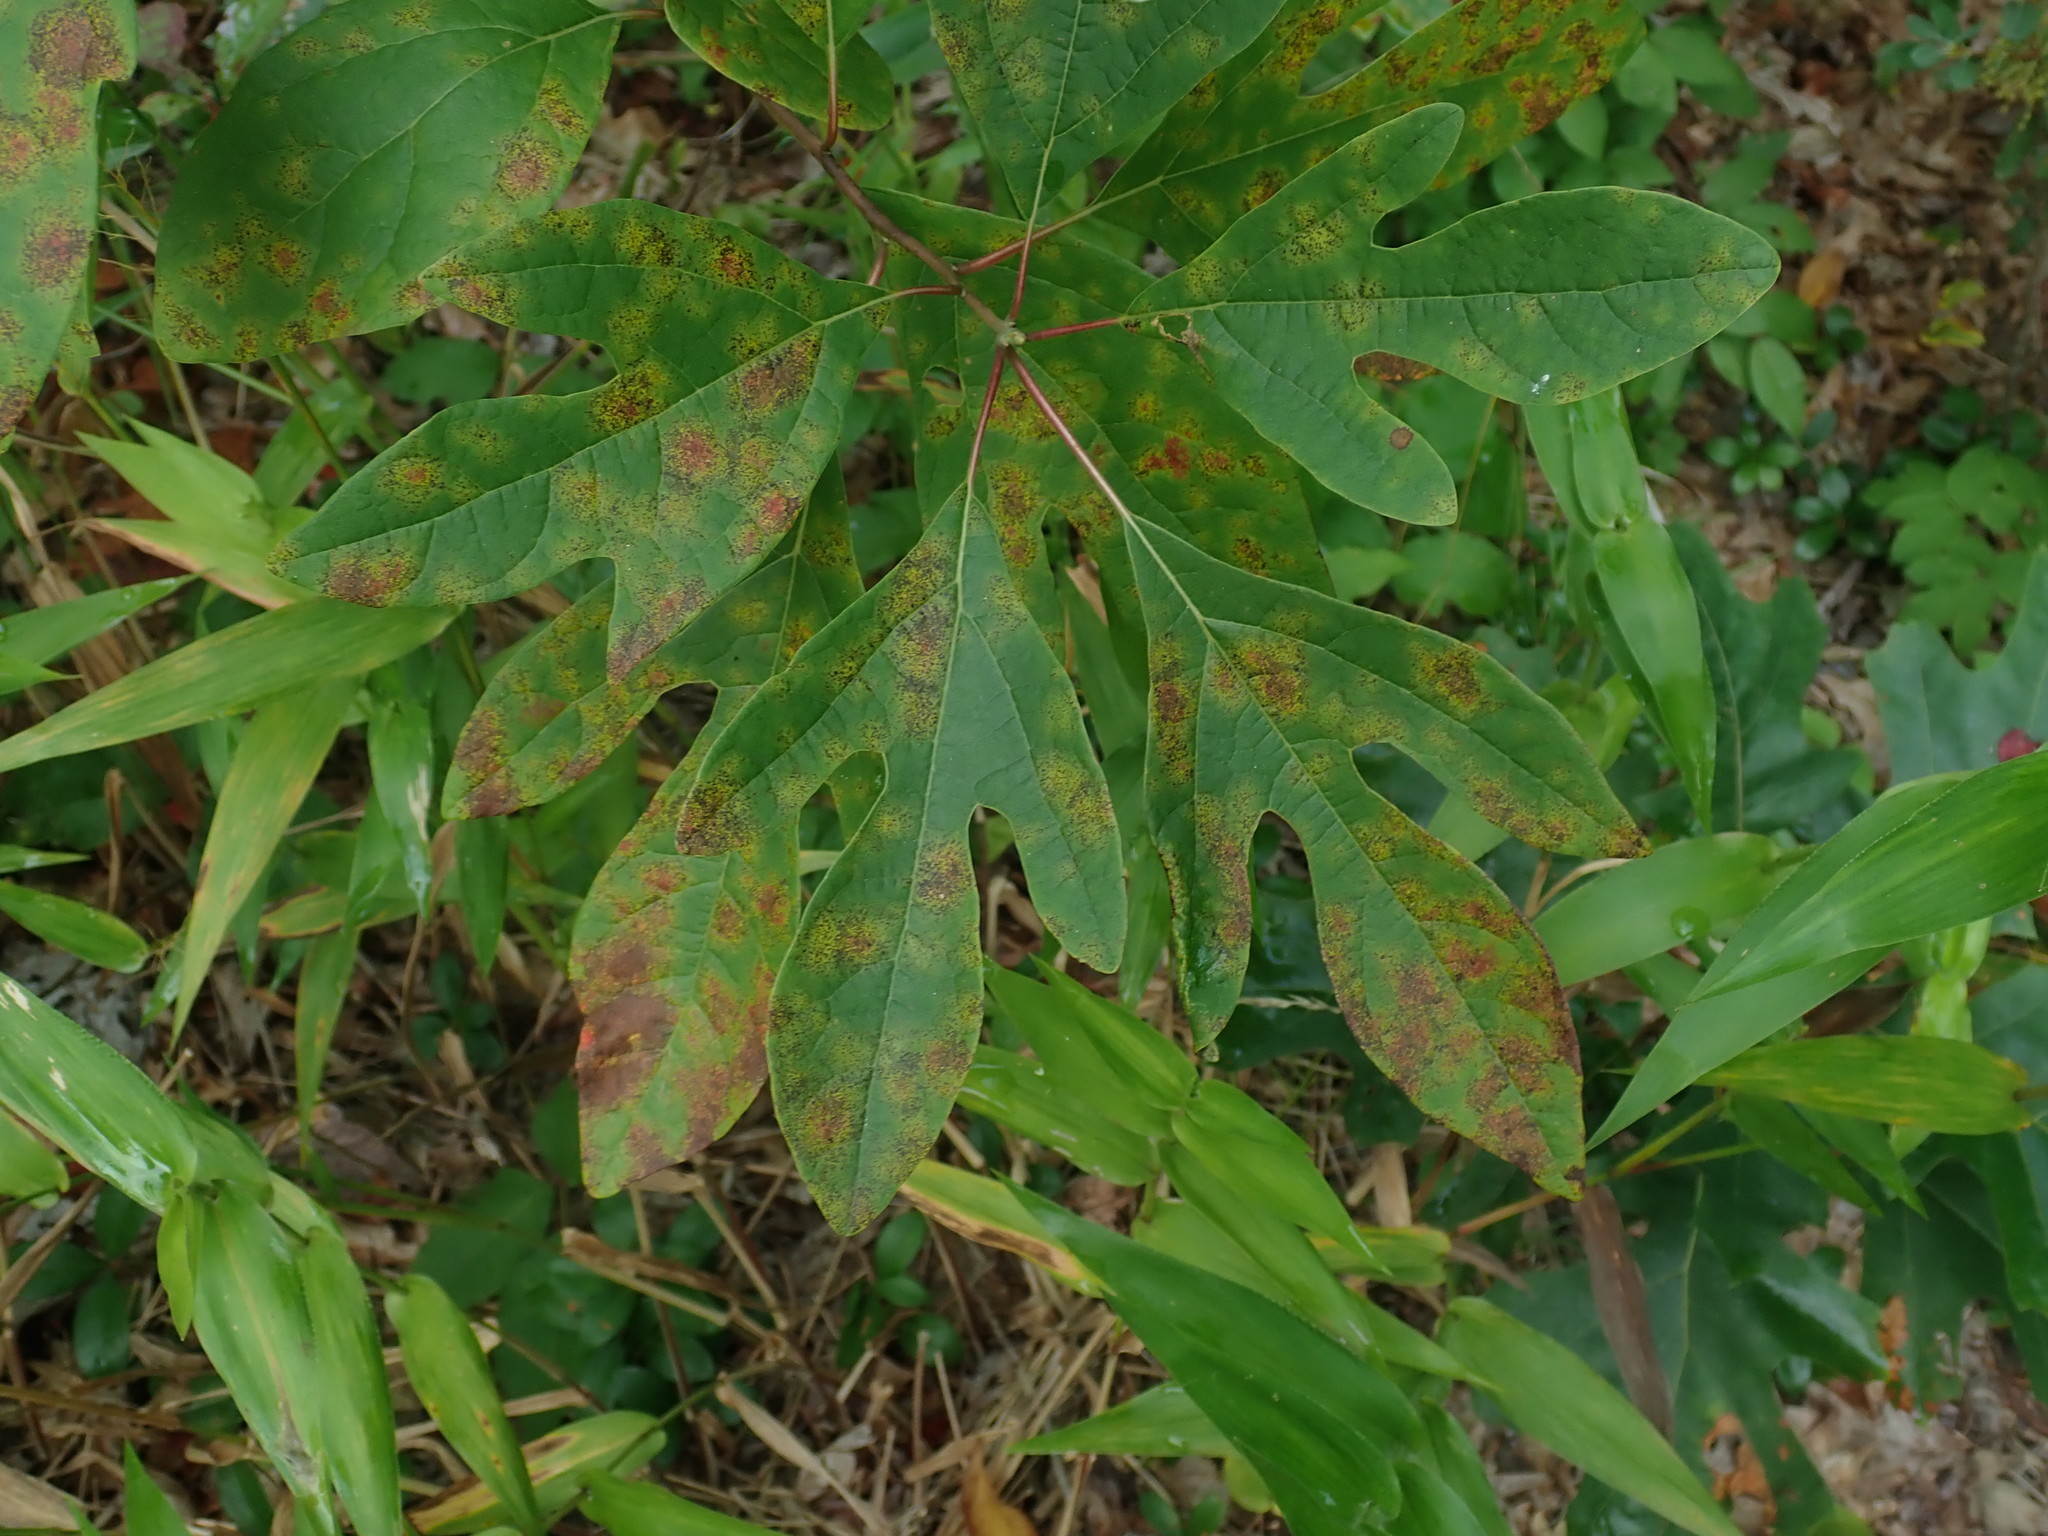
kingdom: Plantae
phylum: Tracheophyta
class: Magnoliopsida
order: Laurales
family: Lauraceae
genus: Sassafras
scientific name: Sassafras albidum
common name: Sassafras
